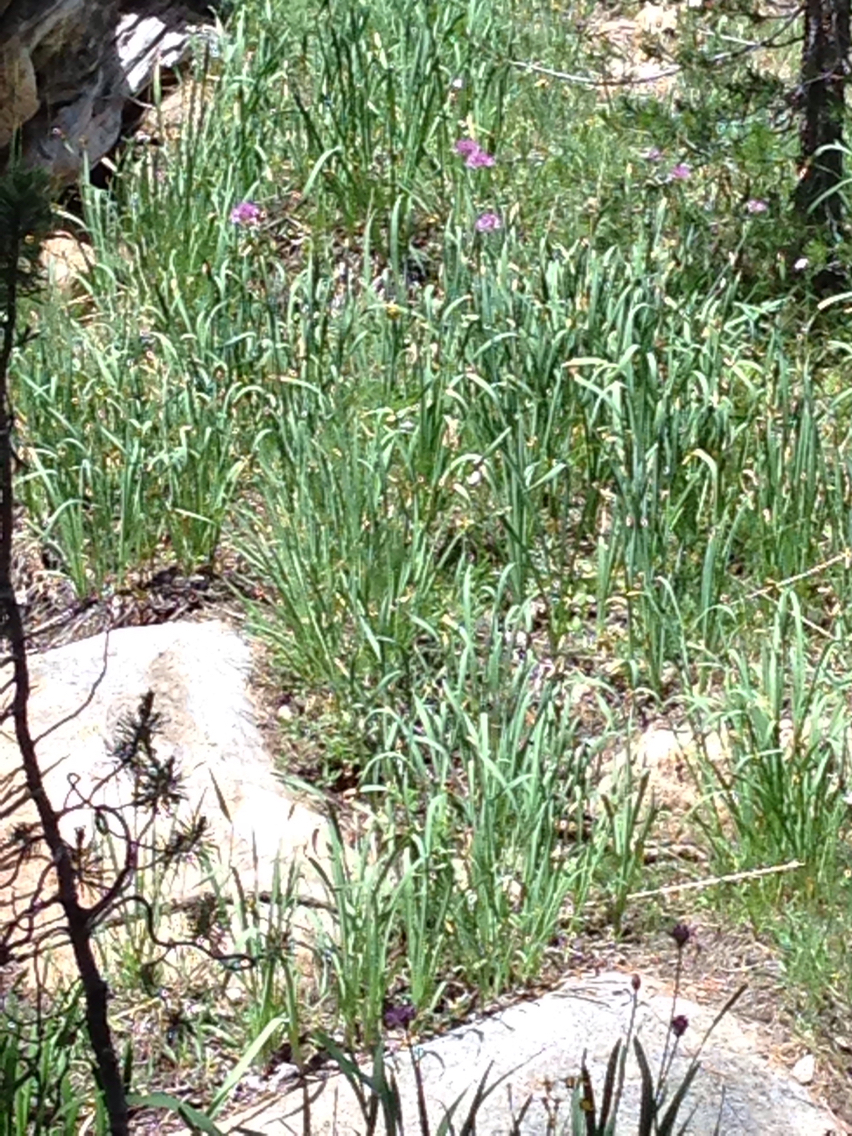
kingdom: Plantae
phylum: Tracheophyta
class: Liliopsida
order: Asparagales
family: Amaryllidaceae
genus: Allium
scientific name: Allium validum
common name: Pacific mountain onion
